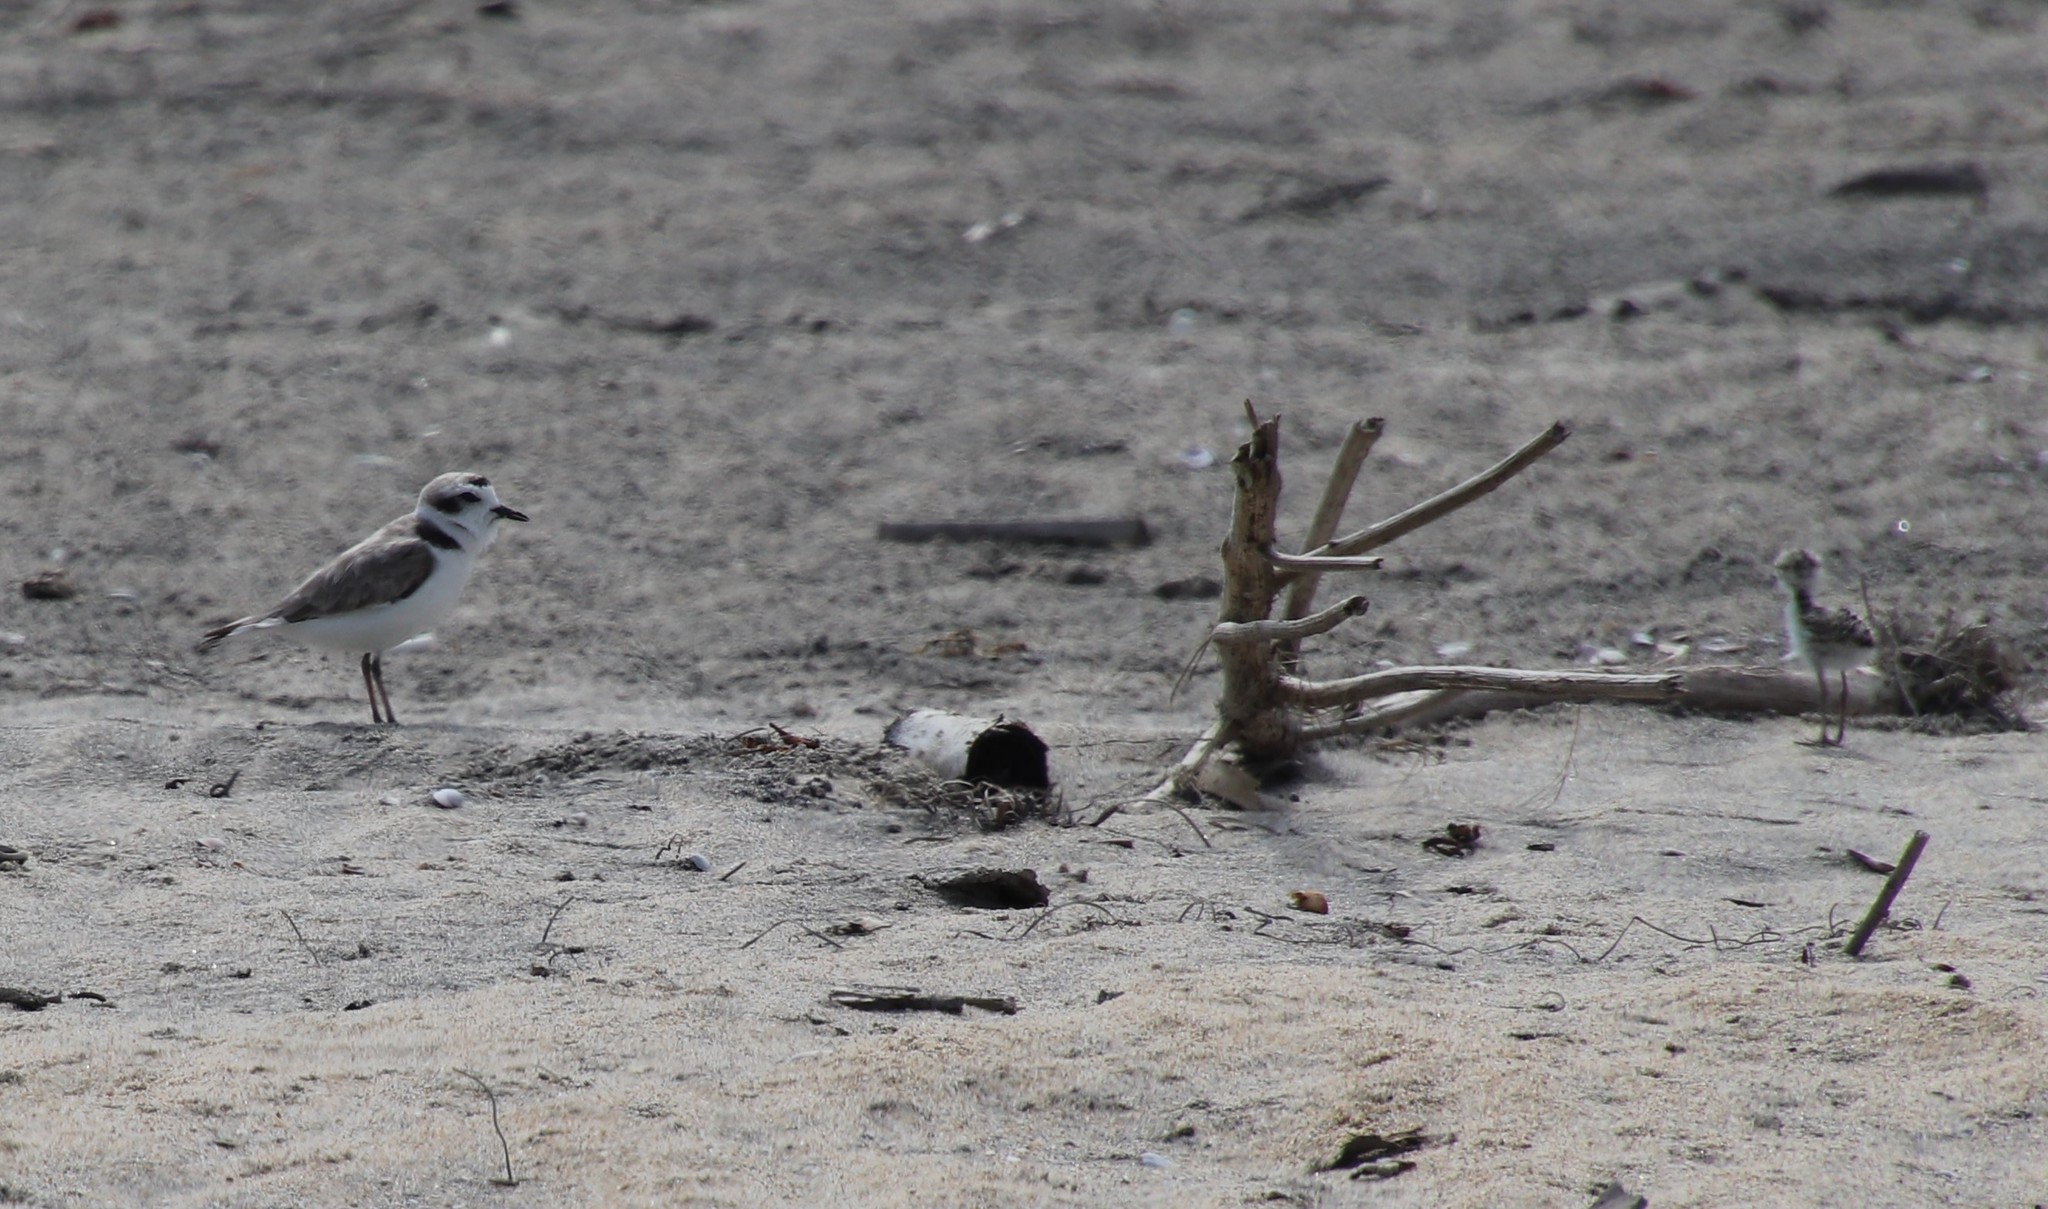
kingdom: Animalia
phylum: Chordata
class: Aves
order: Charadriiformes
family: Charadriidae
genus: Anarhynchus
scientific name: Anarhynchus
